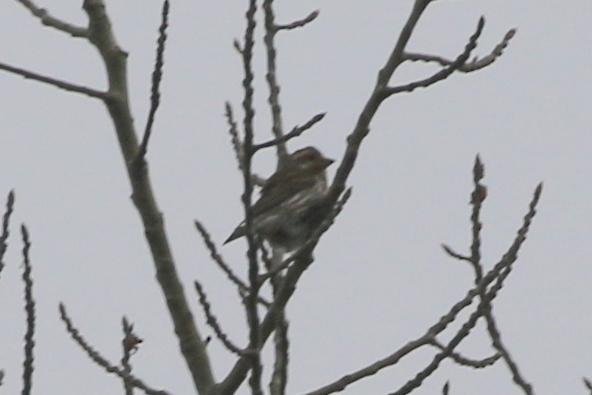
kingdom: Animalia
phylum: Chordata
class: Aves
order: Passeriformes
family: Fringillidae
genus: Haemorhous
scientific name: Haemorhous purpureus
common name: Purple finch
